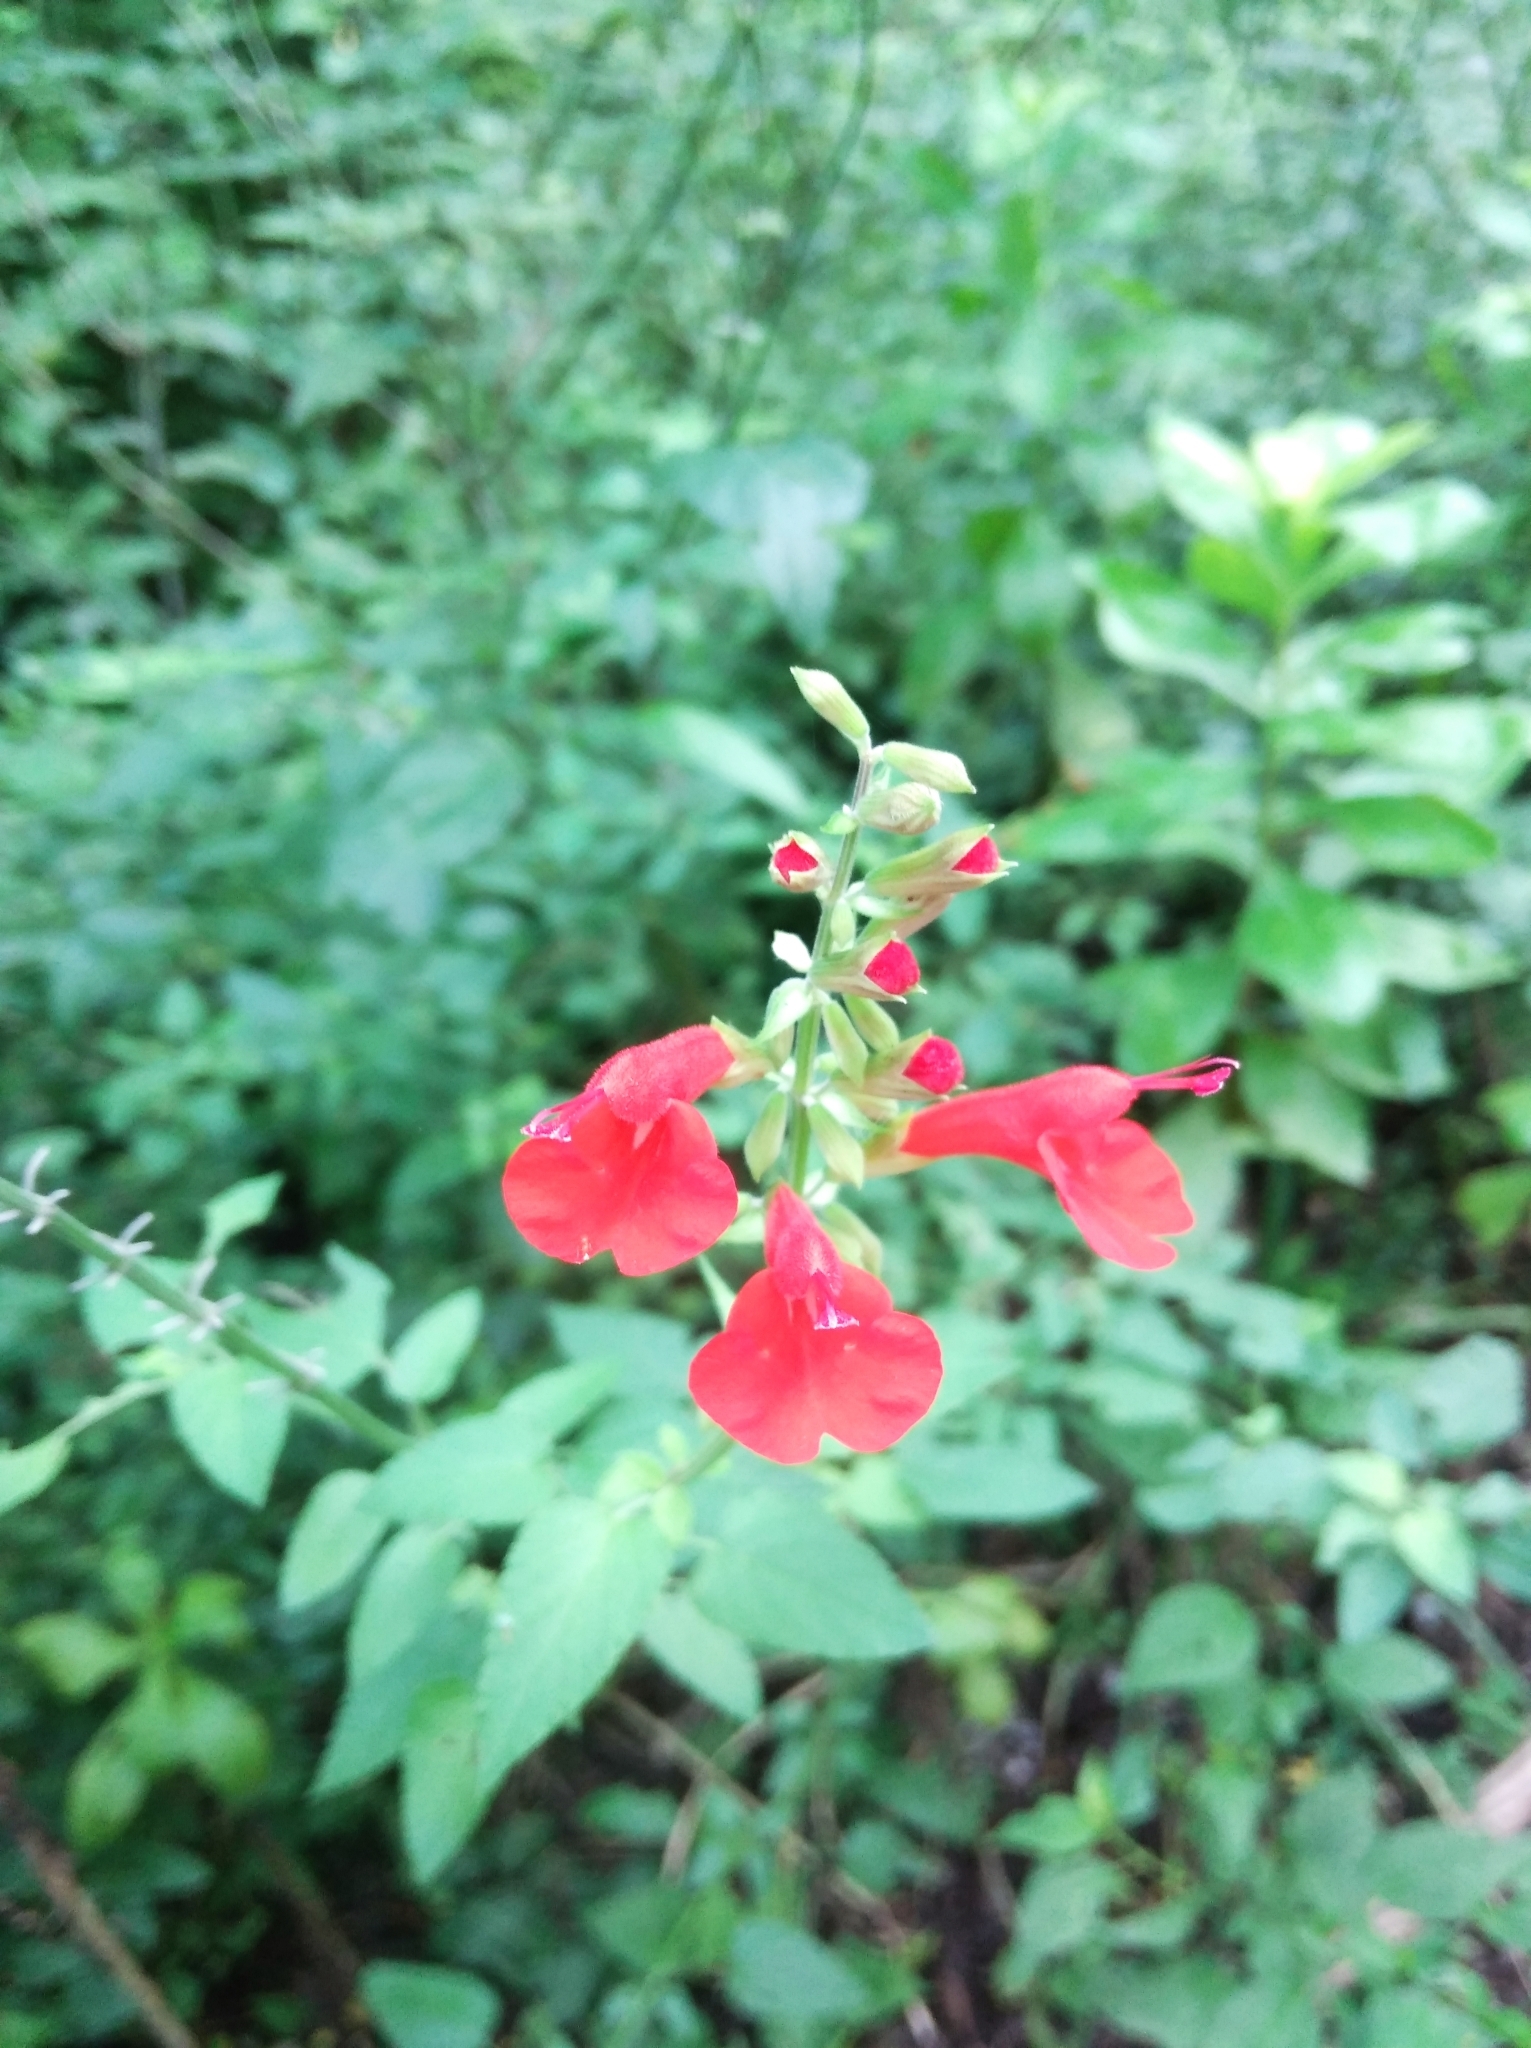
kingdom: Plantae
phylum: Tracheophyta
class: Magnoliopsida
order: Lamiales
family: Lamiaceae
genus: Salvia
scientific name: Salvia coccinea
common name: Blood sage
